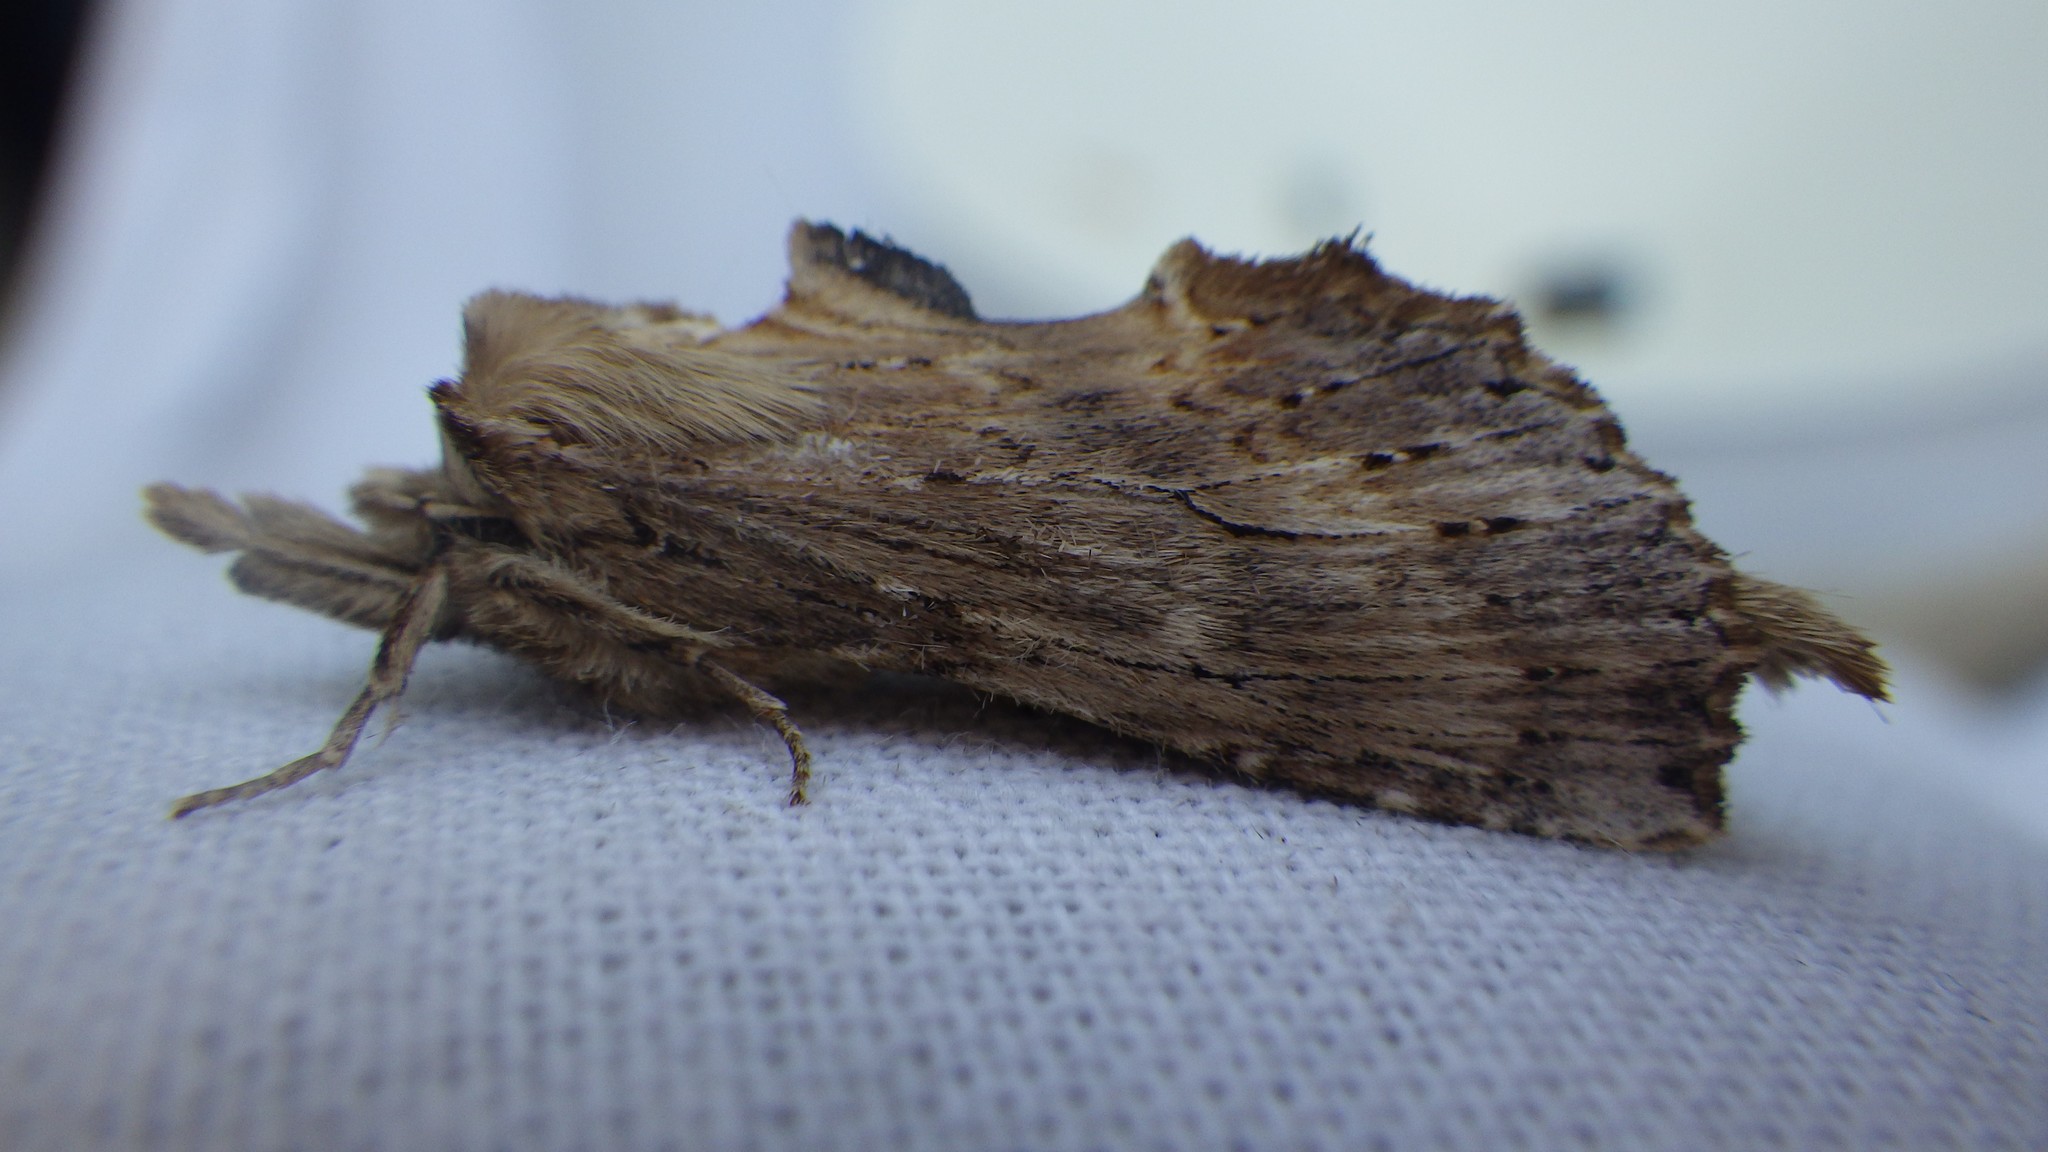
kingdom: Animalia
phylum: Arthropoda
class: Insecta
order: Lepidoptera
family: Notodontidae
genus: Pterostoma
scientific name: Pterostoma palpina
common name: Pale prominent
